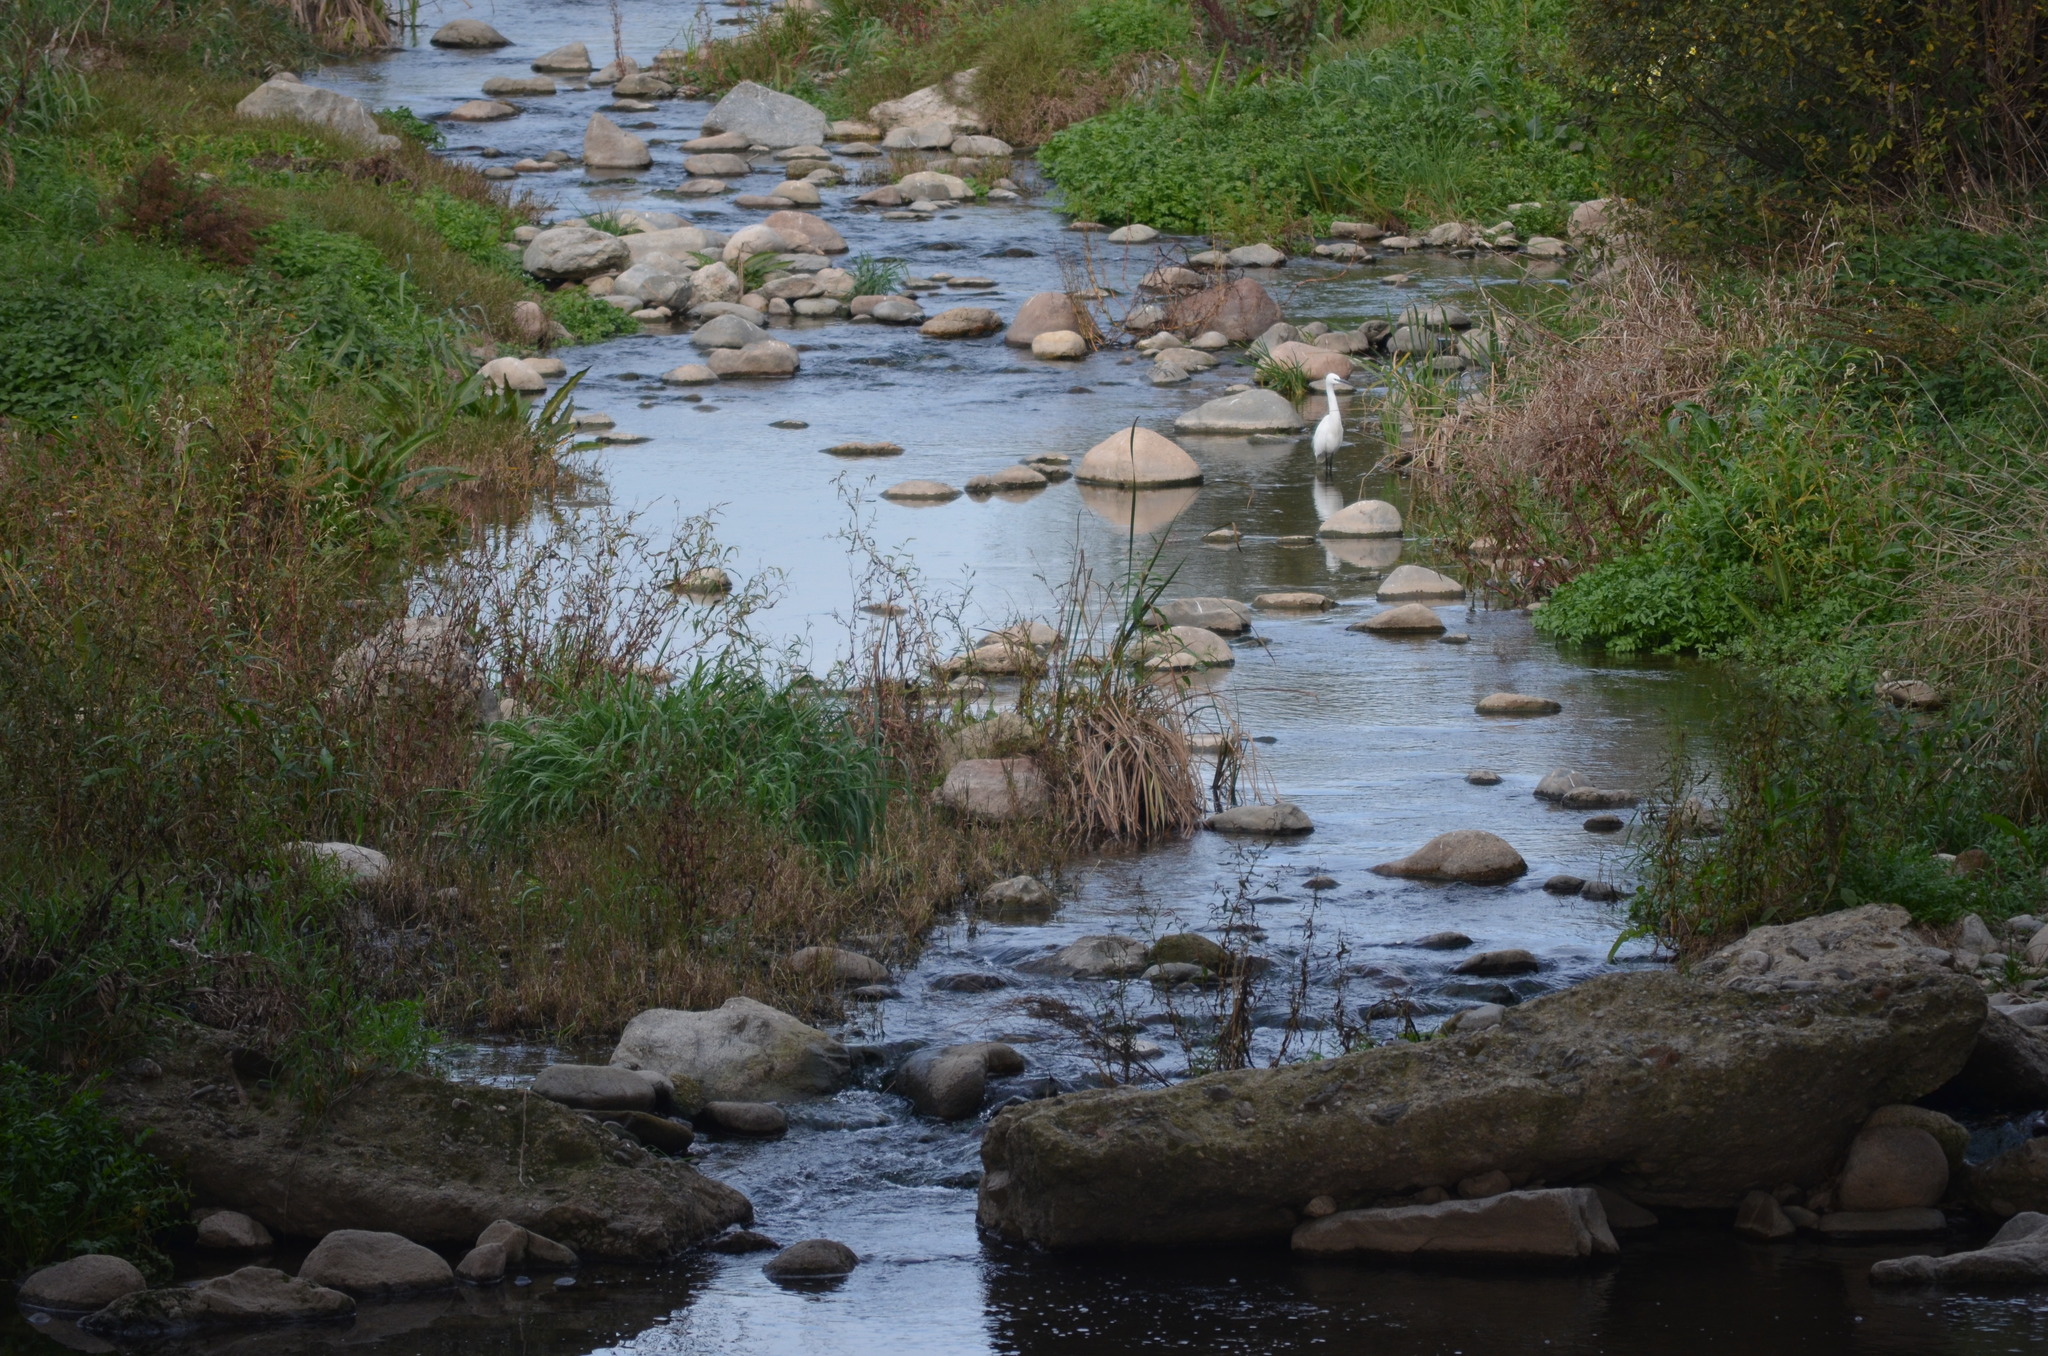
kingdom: Animalia
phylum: Chordata
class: Aves
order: Pelecaniformes
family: Ardeidae
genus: Egretta
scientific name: Egretta garzetta
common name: Little egret
